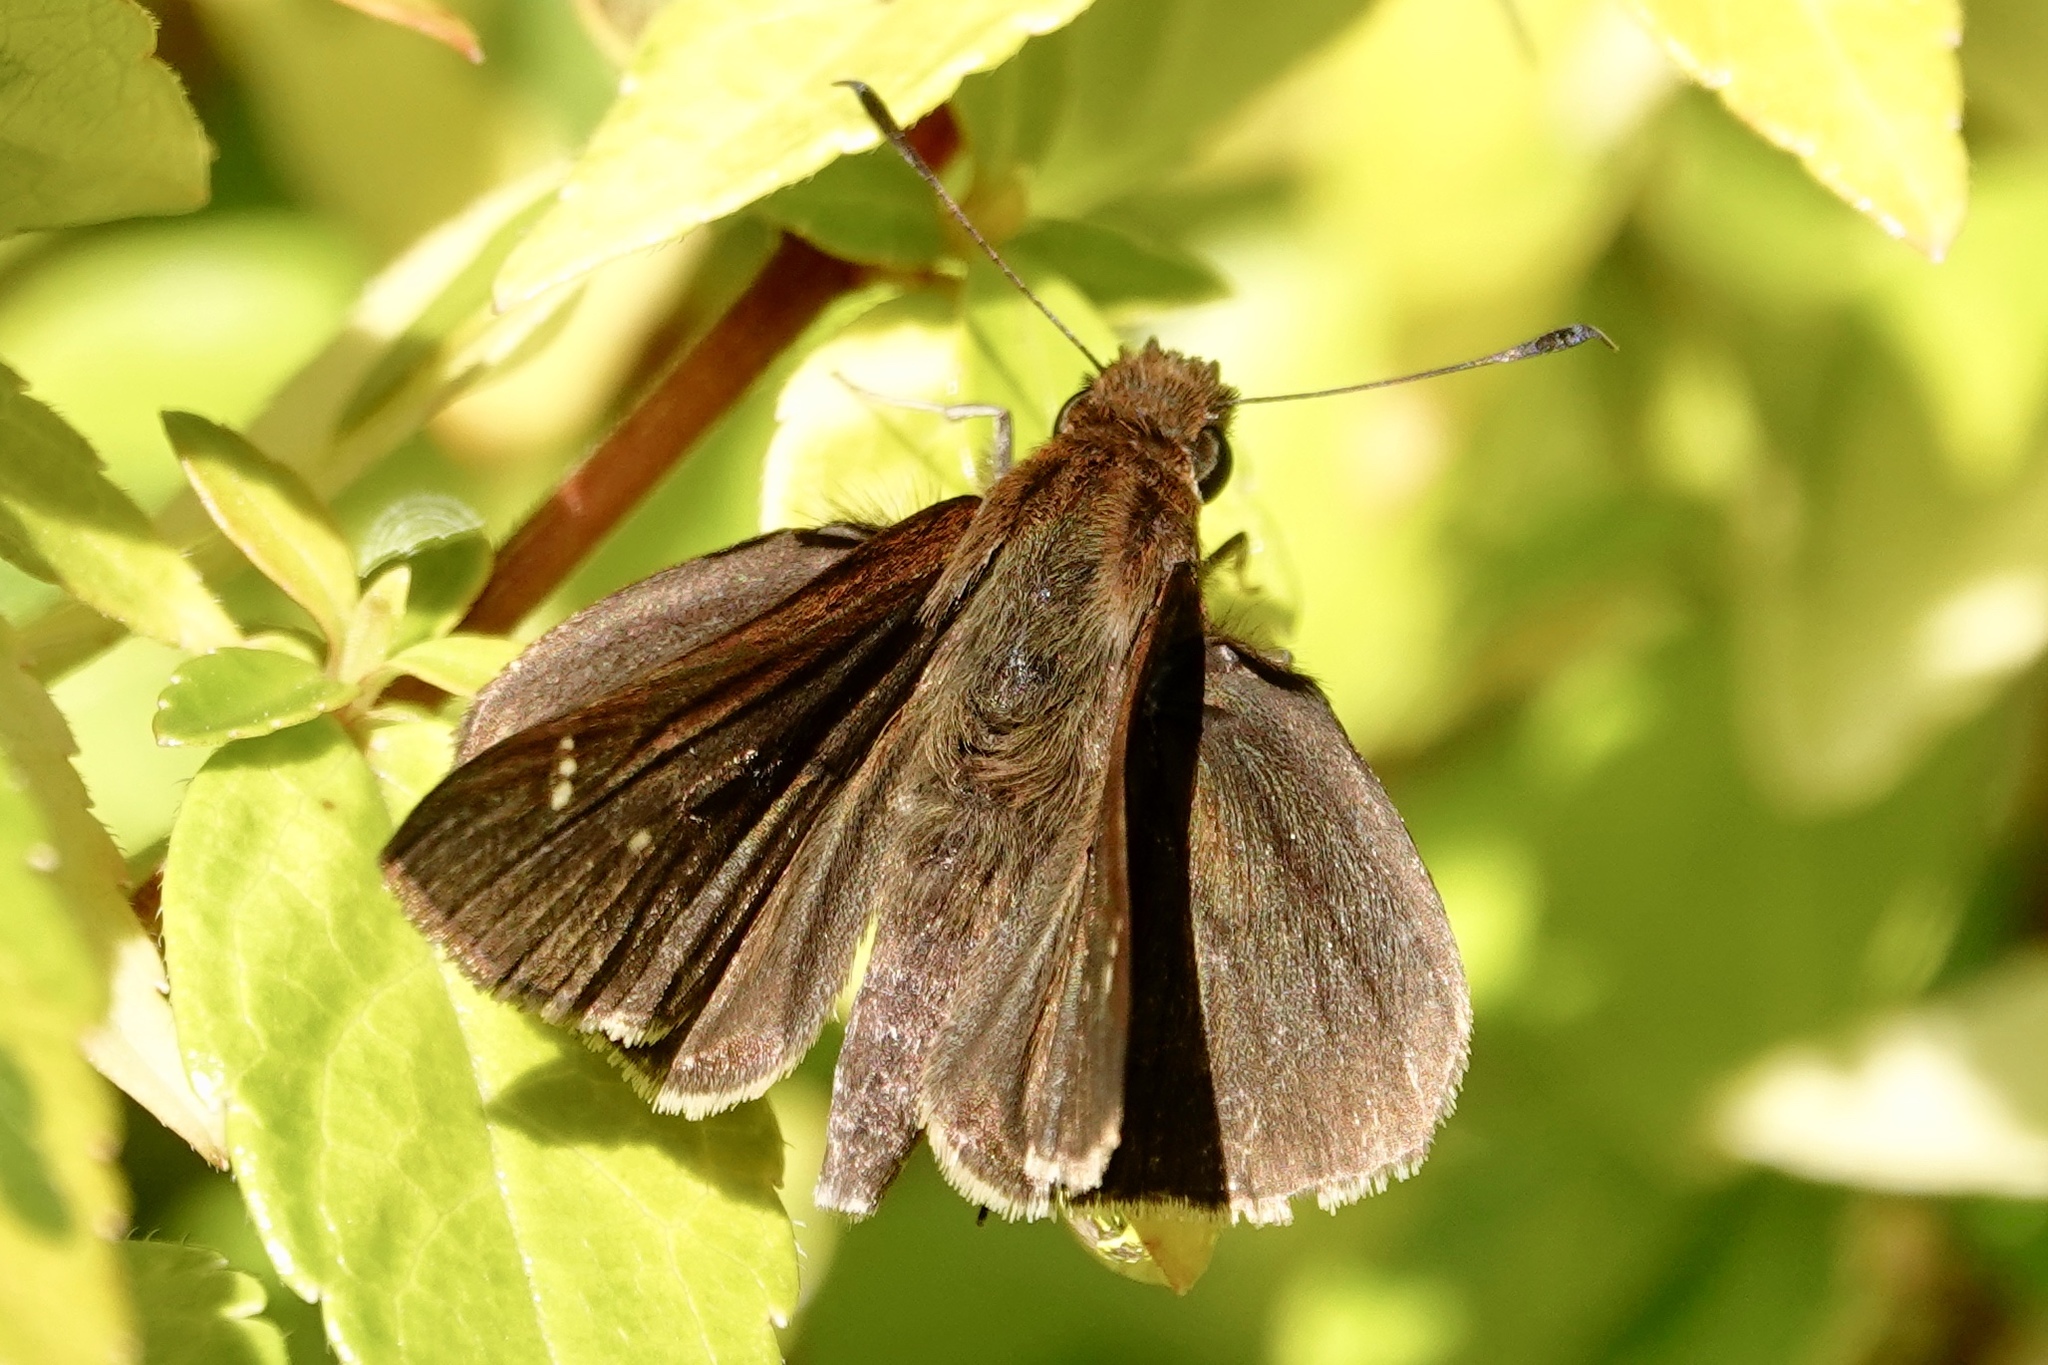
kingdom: Animalia
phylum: Arthropoda
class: Insecta
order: Lepidoptera
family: Hesperiidae
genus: Lerema
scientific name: Lerema accius
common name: Clouded skipper
